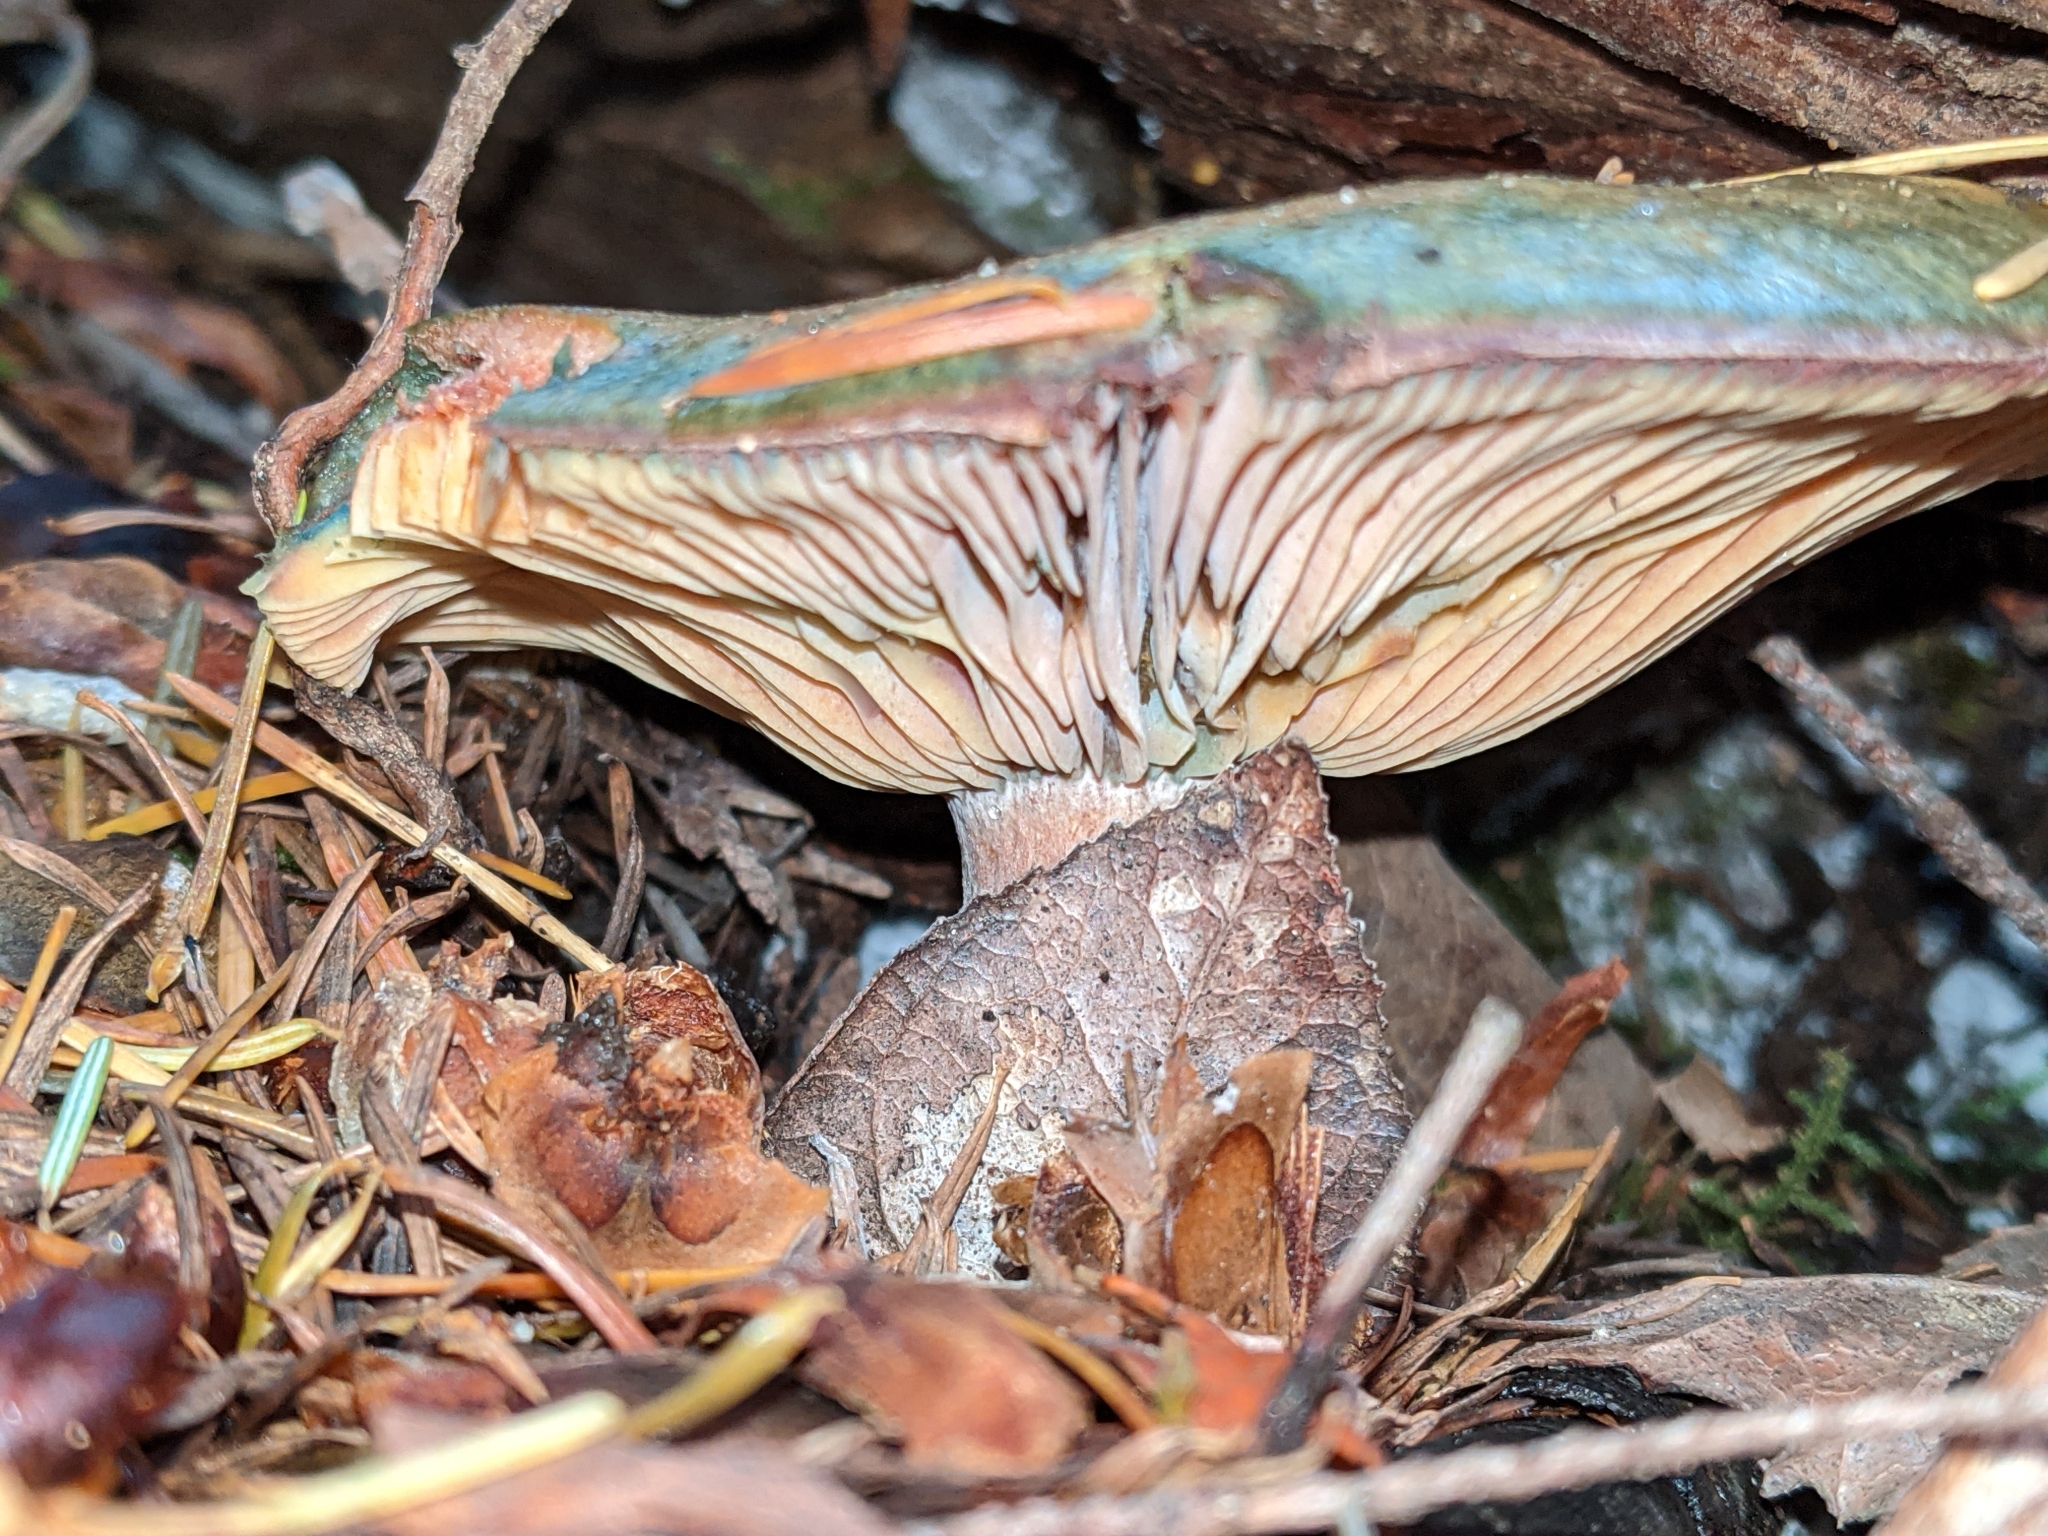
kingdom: Fungi
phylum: Basidiomycota
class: Agaricomycetes
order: Russulales
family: Russulaceae
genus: Lactarius
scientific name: Lactarius rubrilacteus
